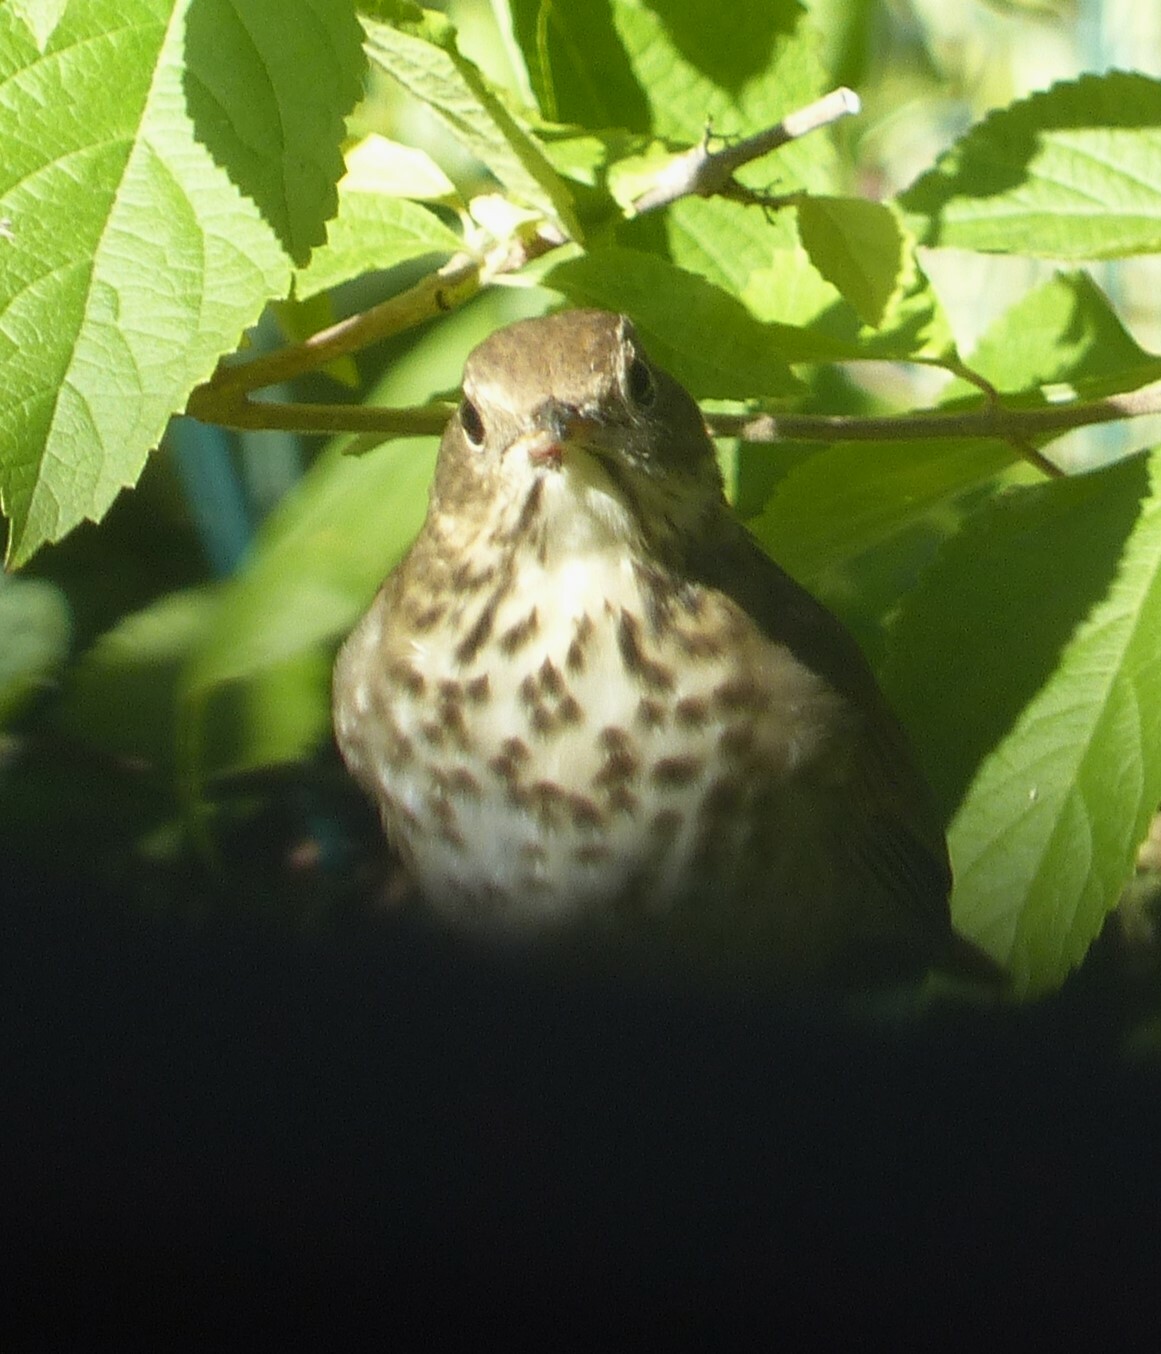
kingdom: Animalia
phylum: Chordata
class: Aves
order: Passeriformes
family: Turdidae
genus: Catharus
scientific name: Catharus guttatus
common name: Hermit thrush
